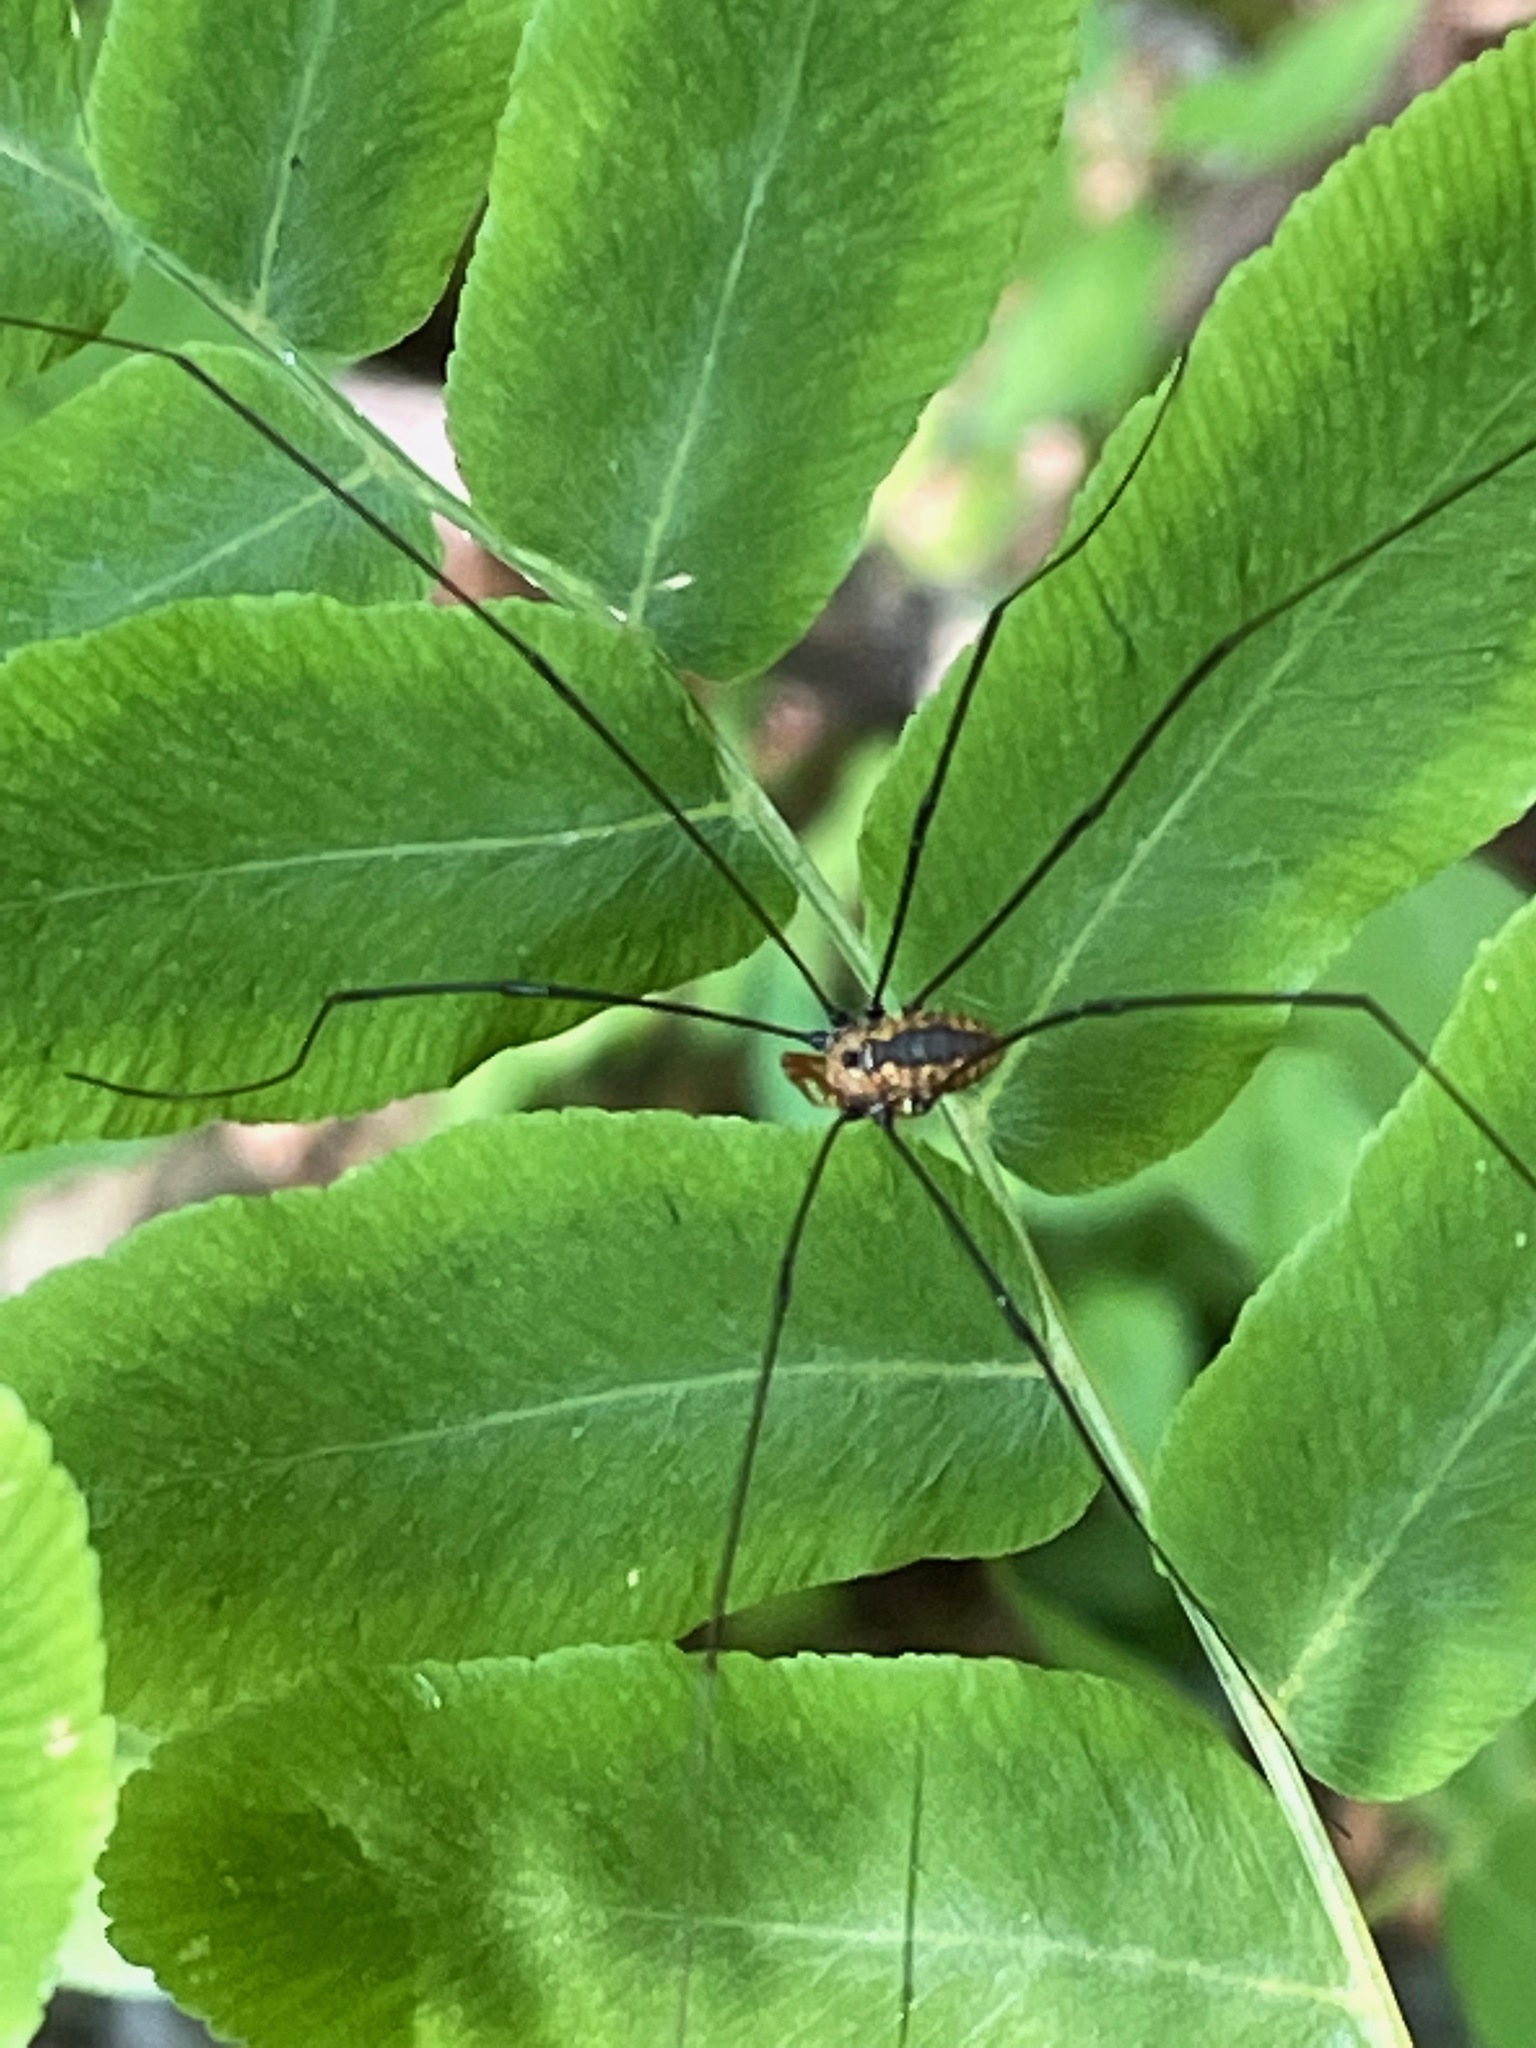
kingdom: Animalia
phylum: Arthropoda
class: Arachnida
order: Opiliones
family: Sclerosomatidae
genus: Leiobunum
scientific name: Leiobunum vittatum
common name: Eastern harvestman
